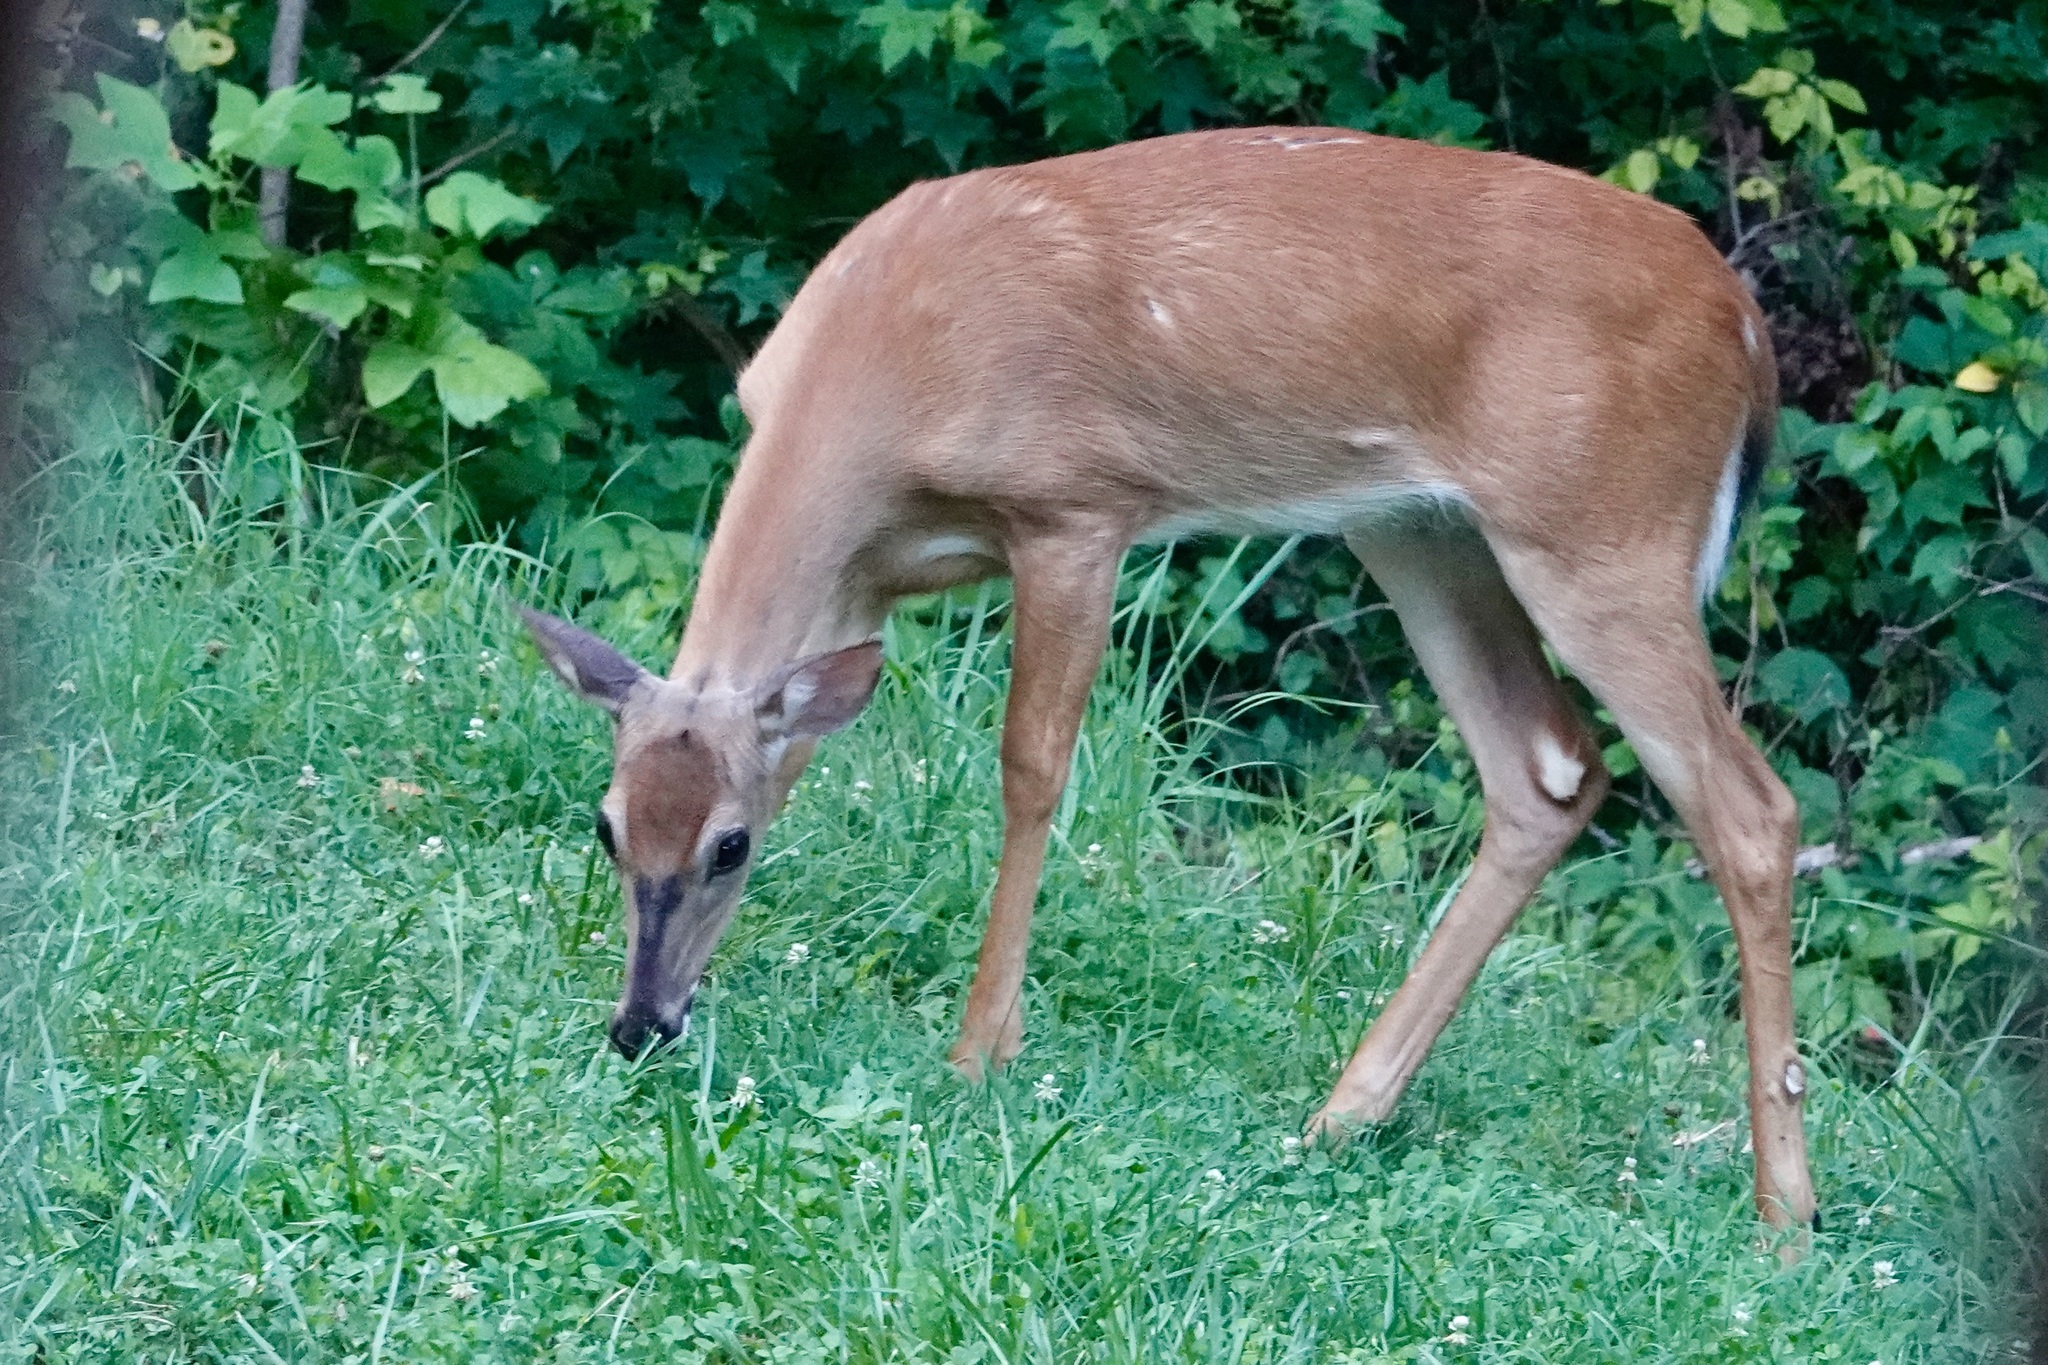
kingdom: Animalia
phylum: Chordata
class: Mammalia
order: Artiodactyla
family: Cervidae
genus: Odocoileus
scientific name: Odocoileus virginianus
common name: White-tailed deer
